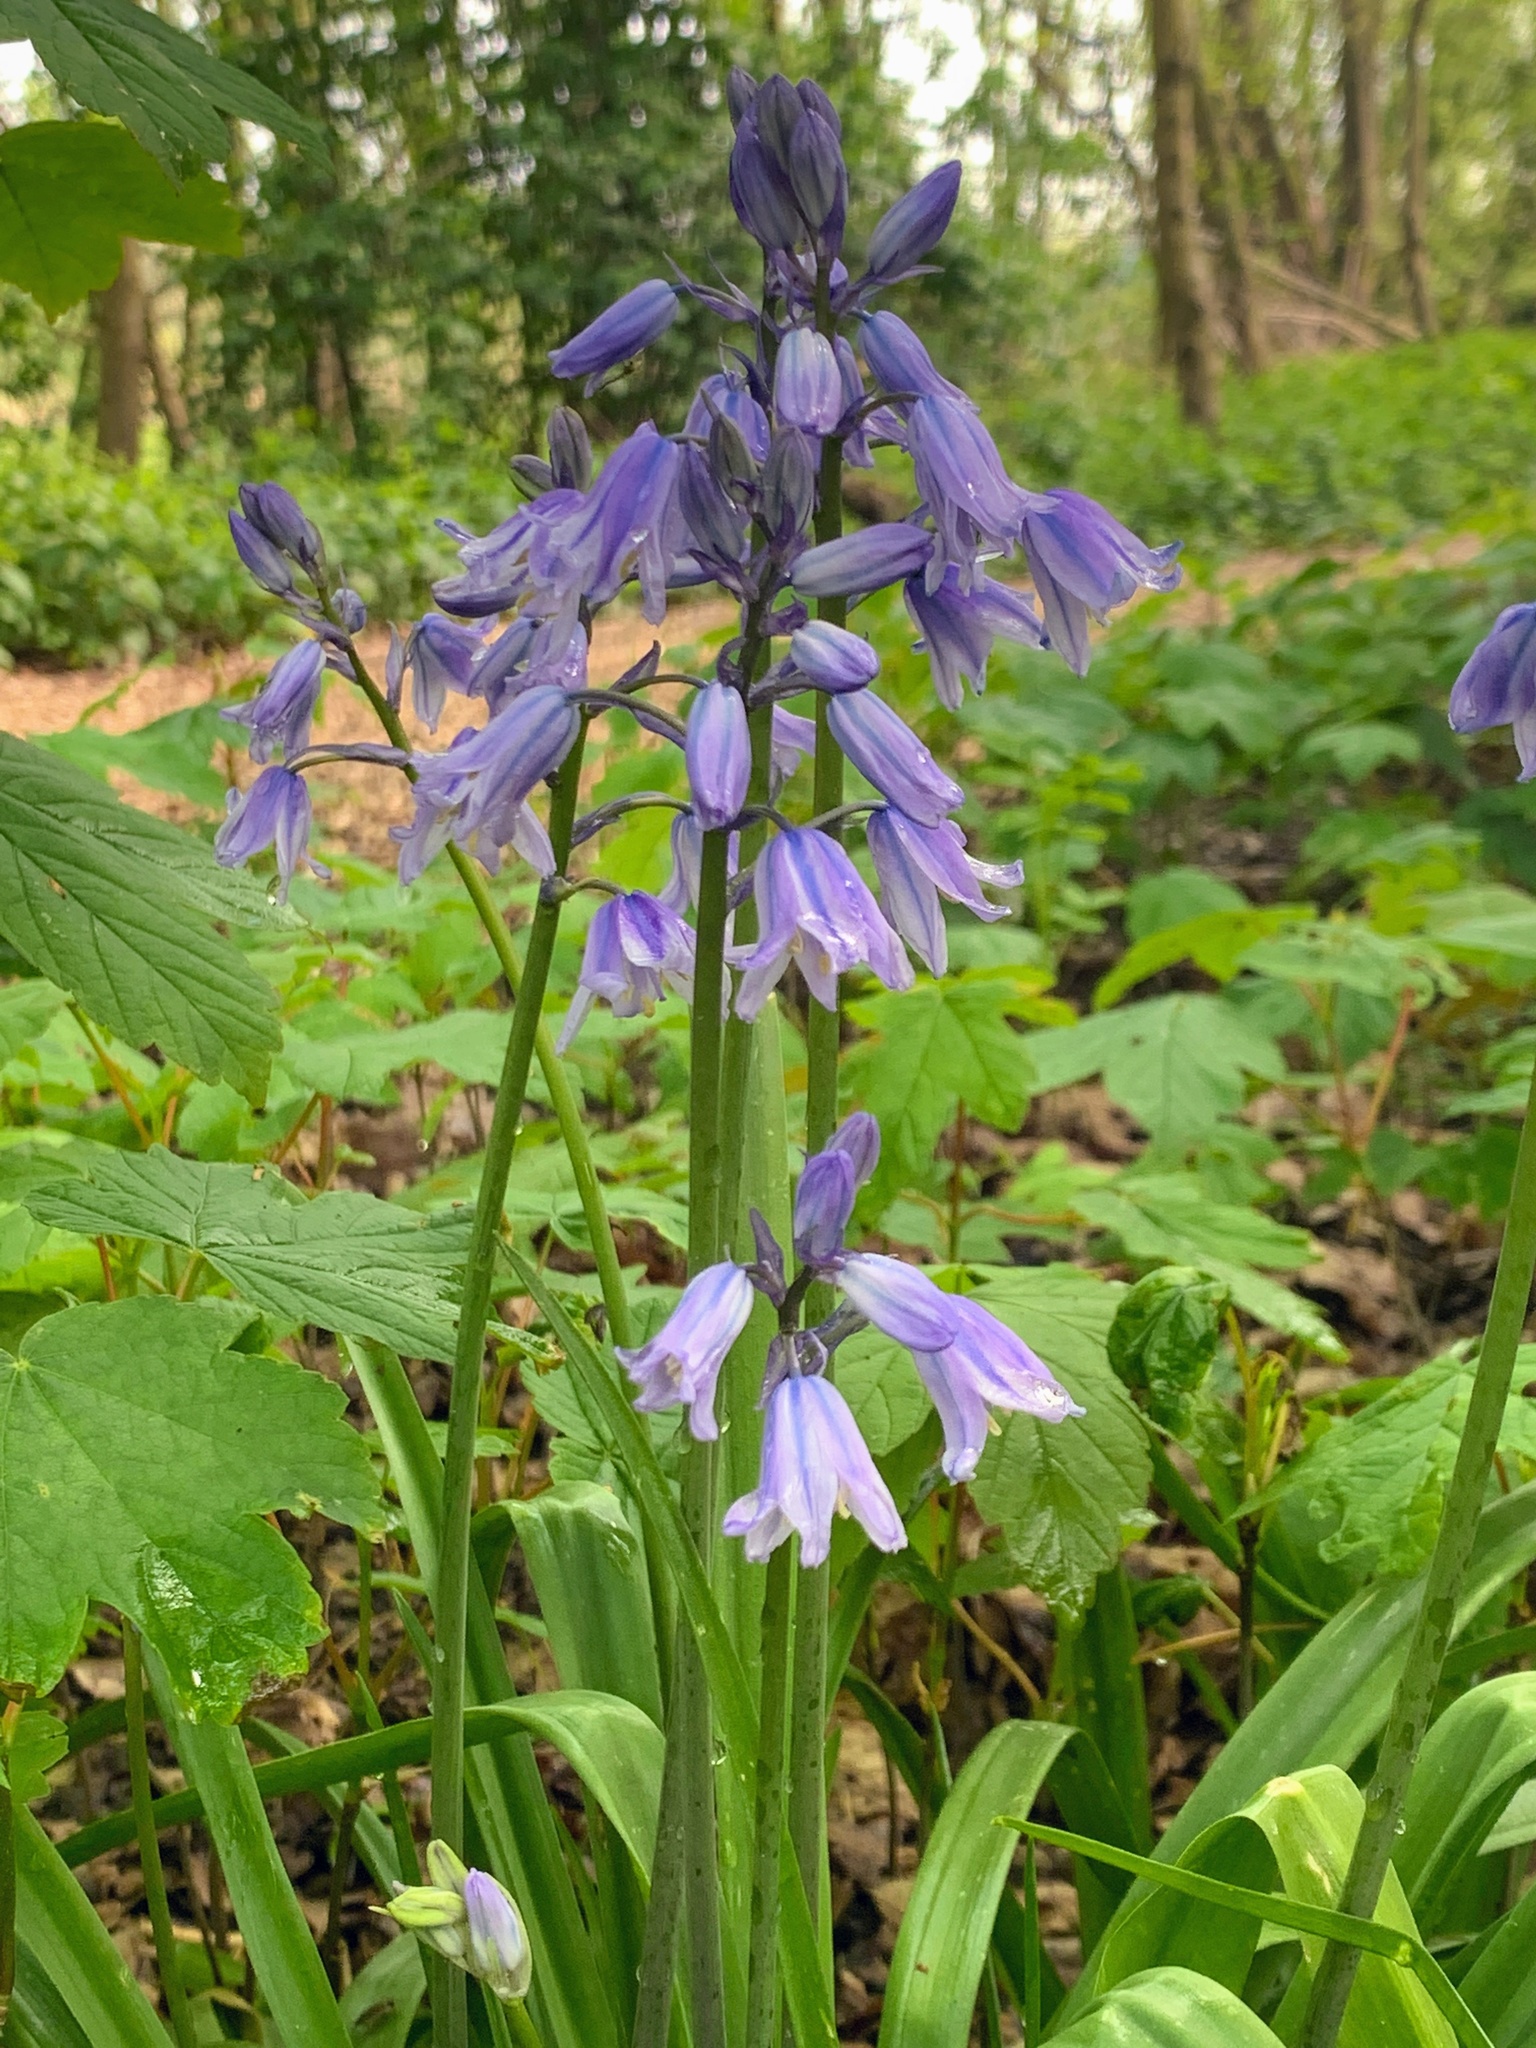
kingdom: Plantae
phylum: Tracheophyta
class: Liliopsida
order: Asparagales
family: Asparagaceae
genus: Hyacinthoides
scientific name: Hyacinthoides non-scripta
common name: Bluebell
